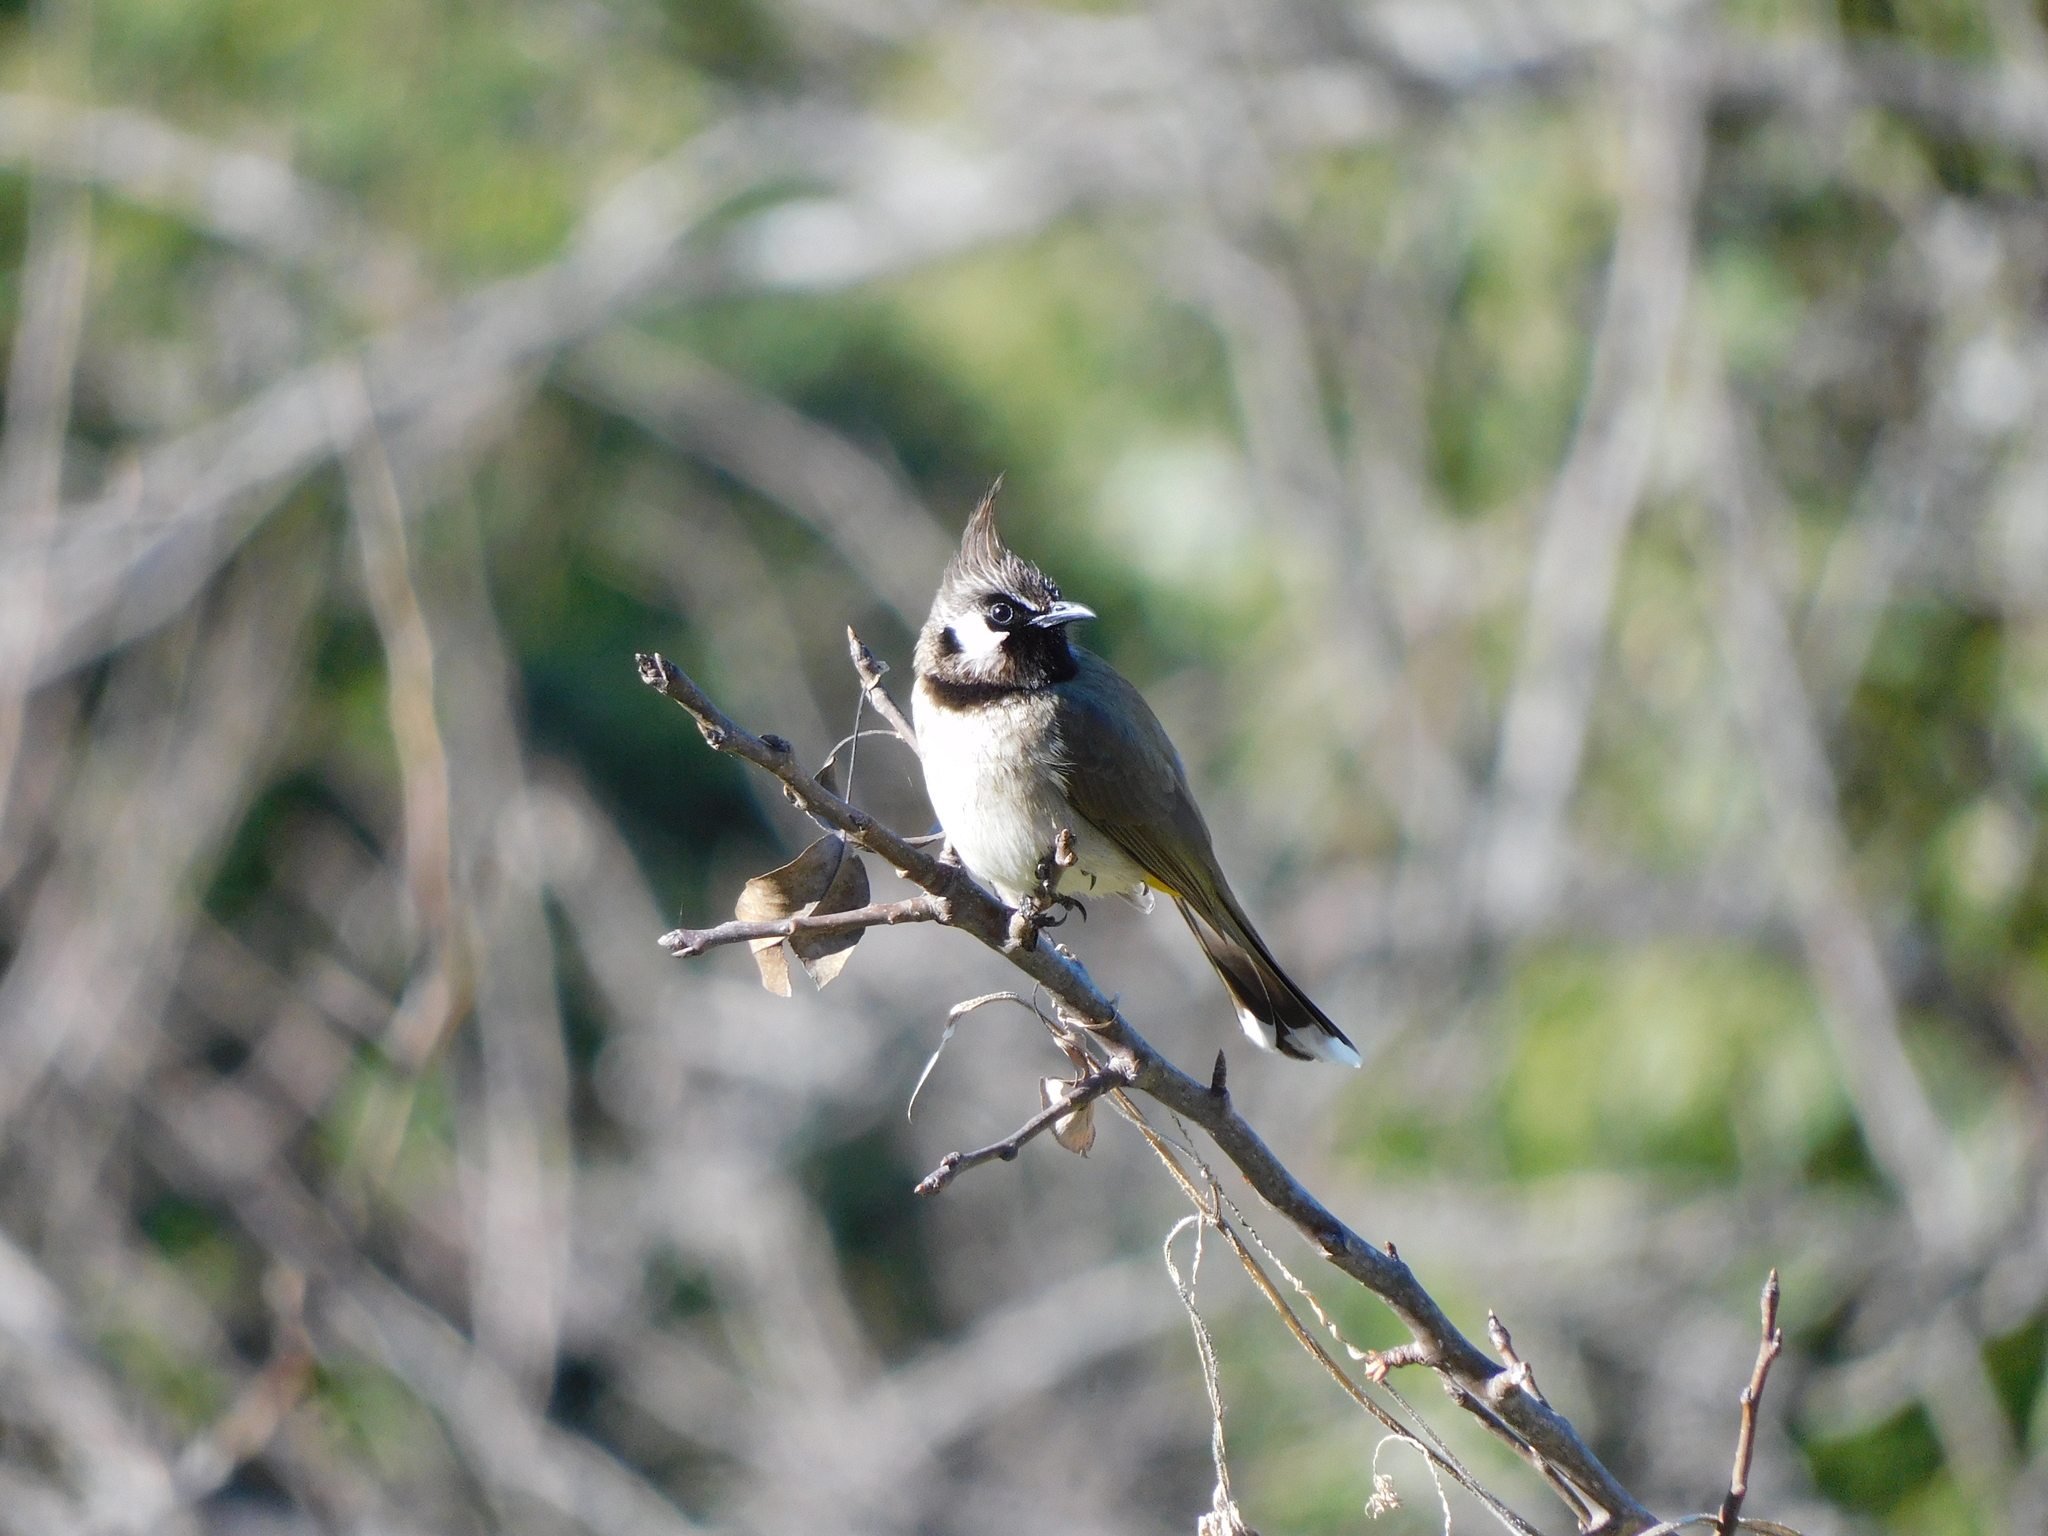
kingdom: Animalia
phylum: Chordata
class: Aves
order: Passeriformes
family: Pycnonotidae
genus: Pycnonotus
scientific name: Pycnonotus leucogenys
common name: Himalayan bulbul
